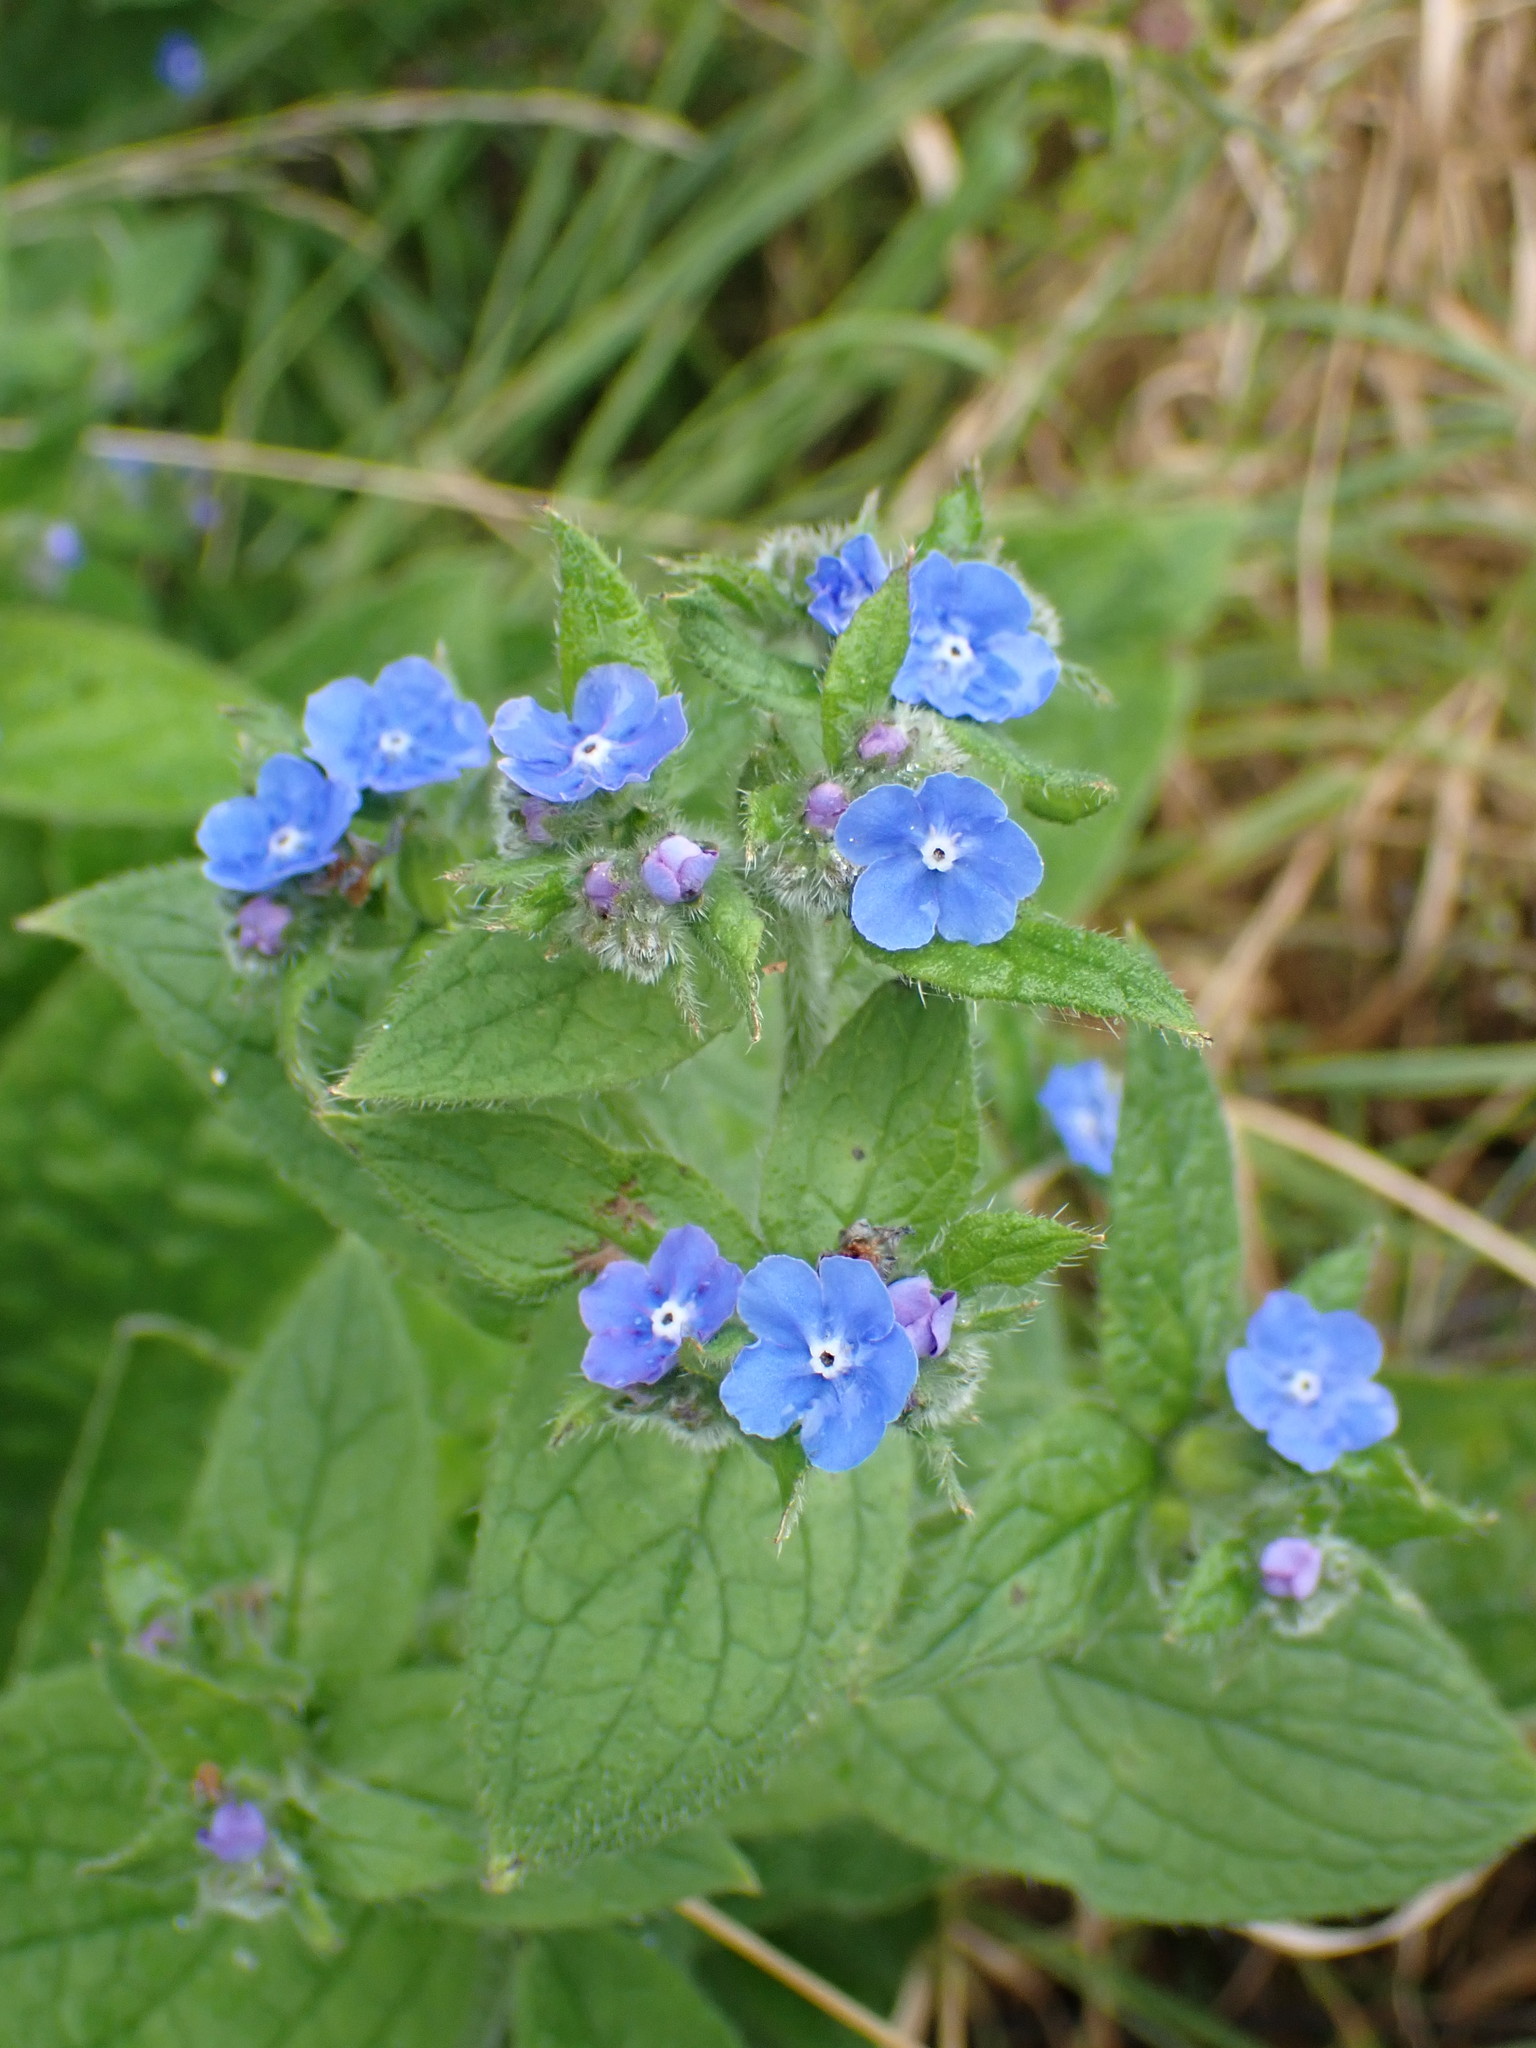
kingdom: Plantae
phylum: Tracheophyta
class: Magnoliopsida
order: Boraginales
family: Boraginaceae
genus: Pentaglottis
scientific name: Pentaglottis sempervirens
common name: Green alkanet
